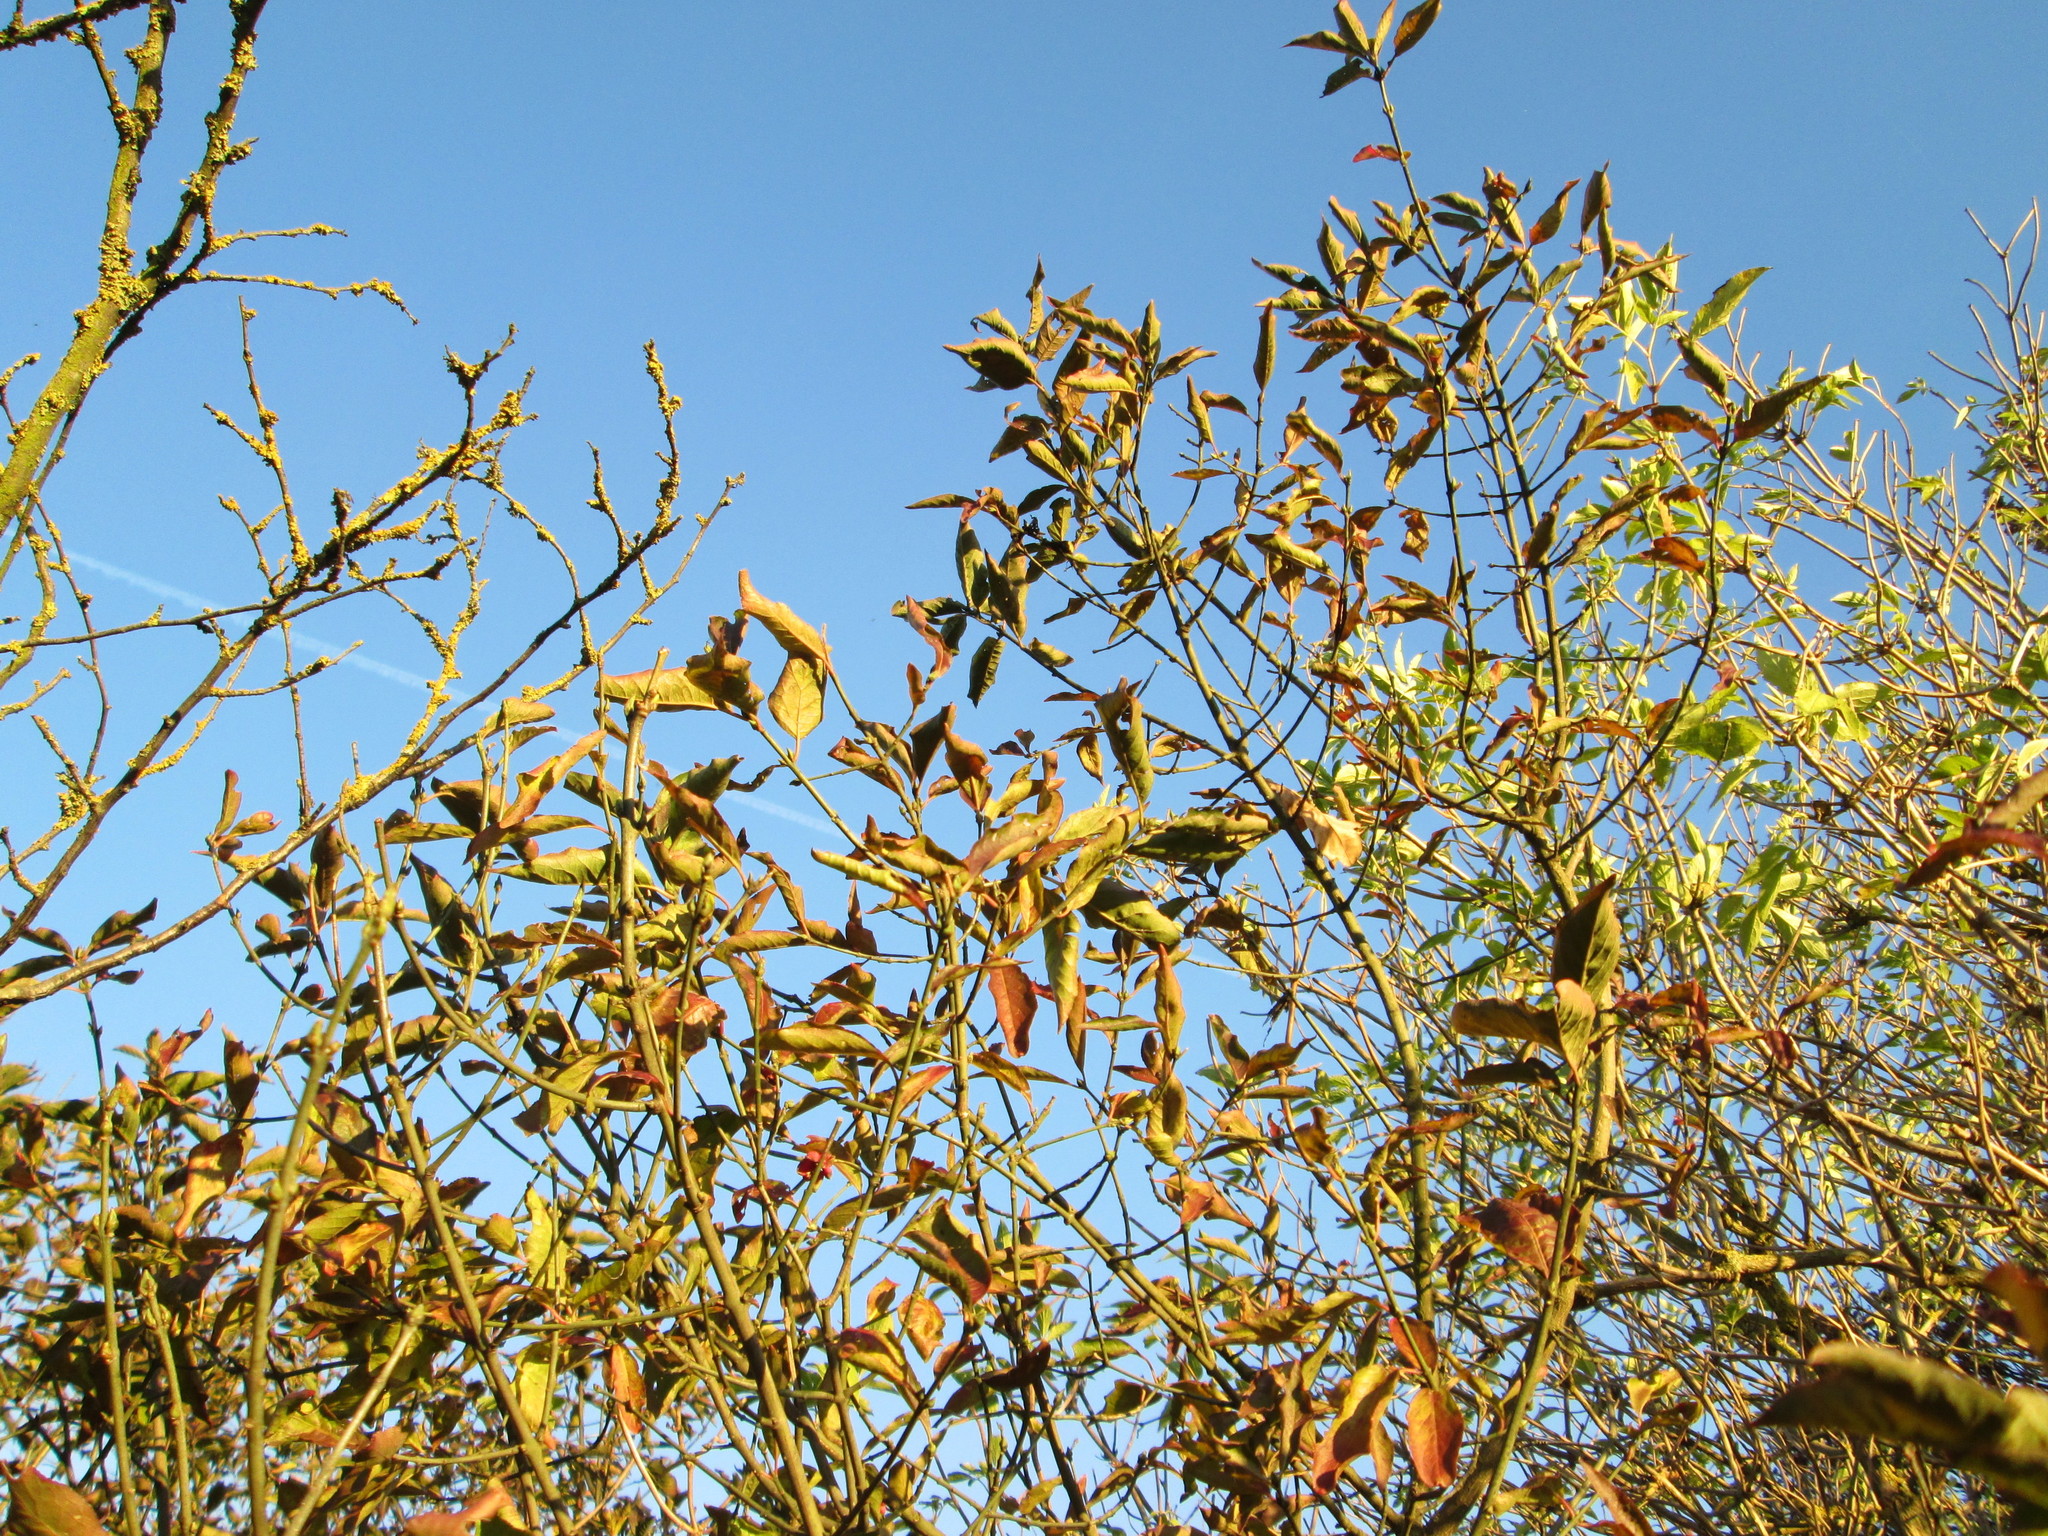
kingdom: Plantae
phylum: Tracheophyta
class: Magnoliopsida
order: Celastrales
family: Celastraceae
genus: Euonymus
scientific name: Euonymus europaeus
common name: Spindle
